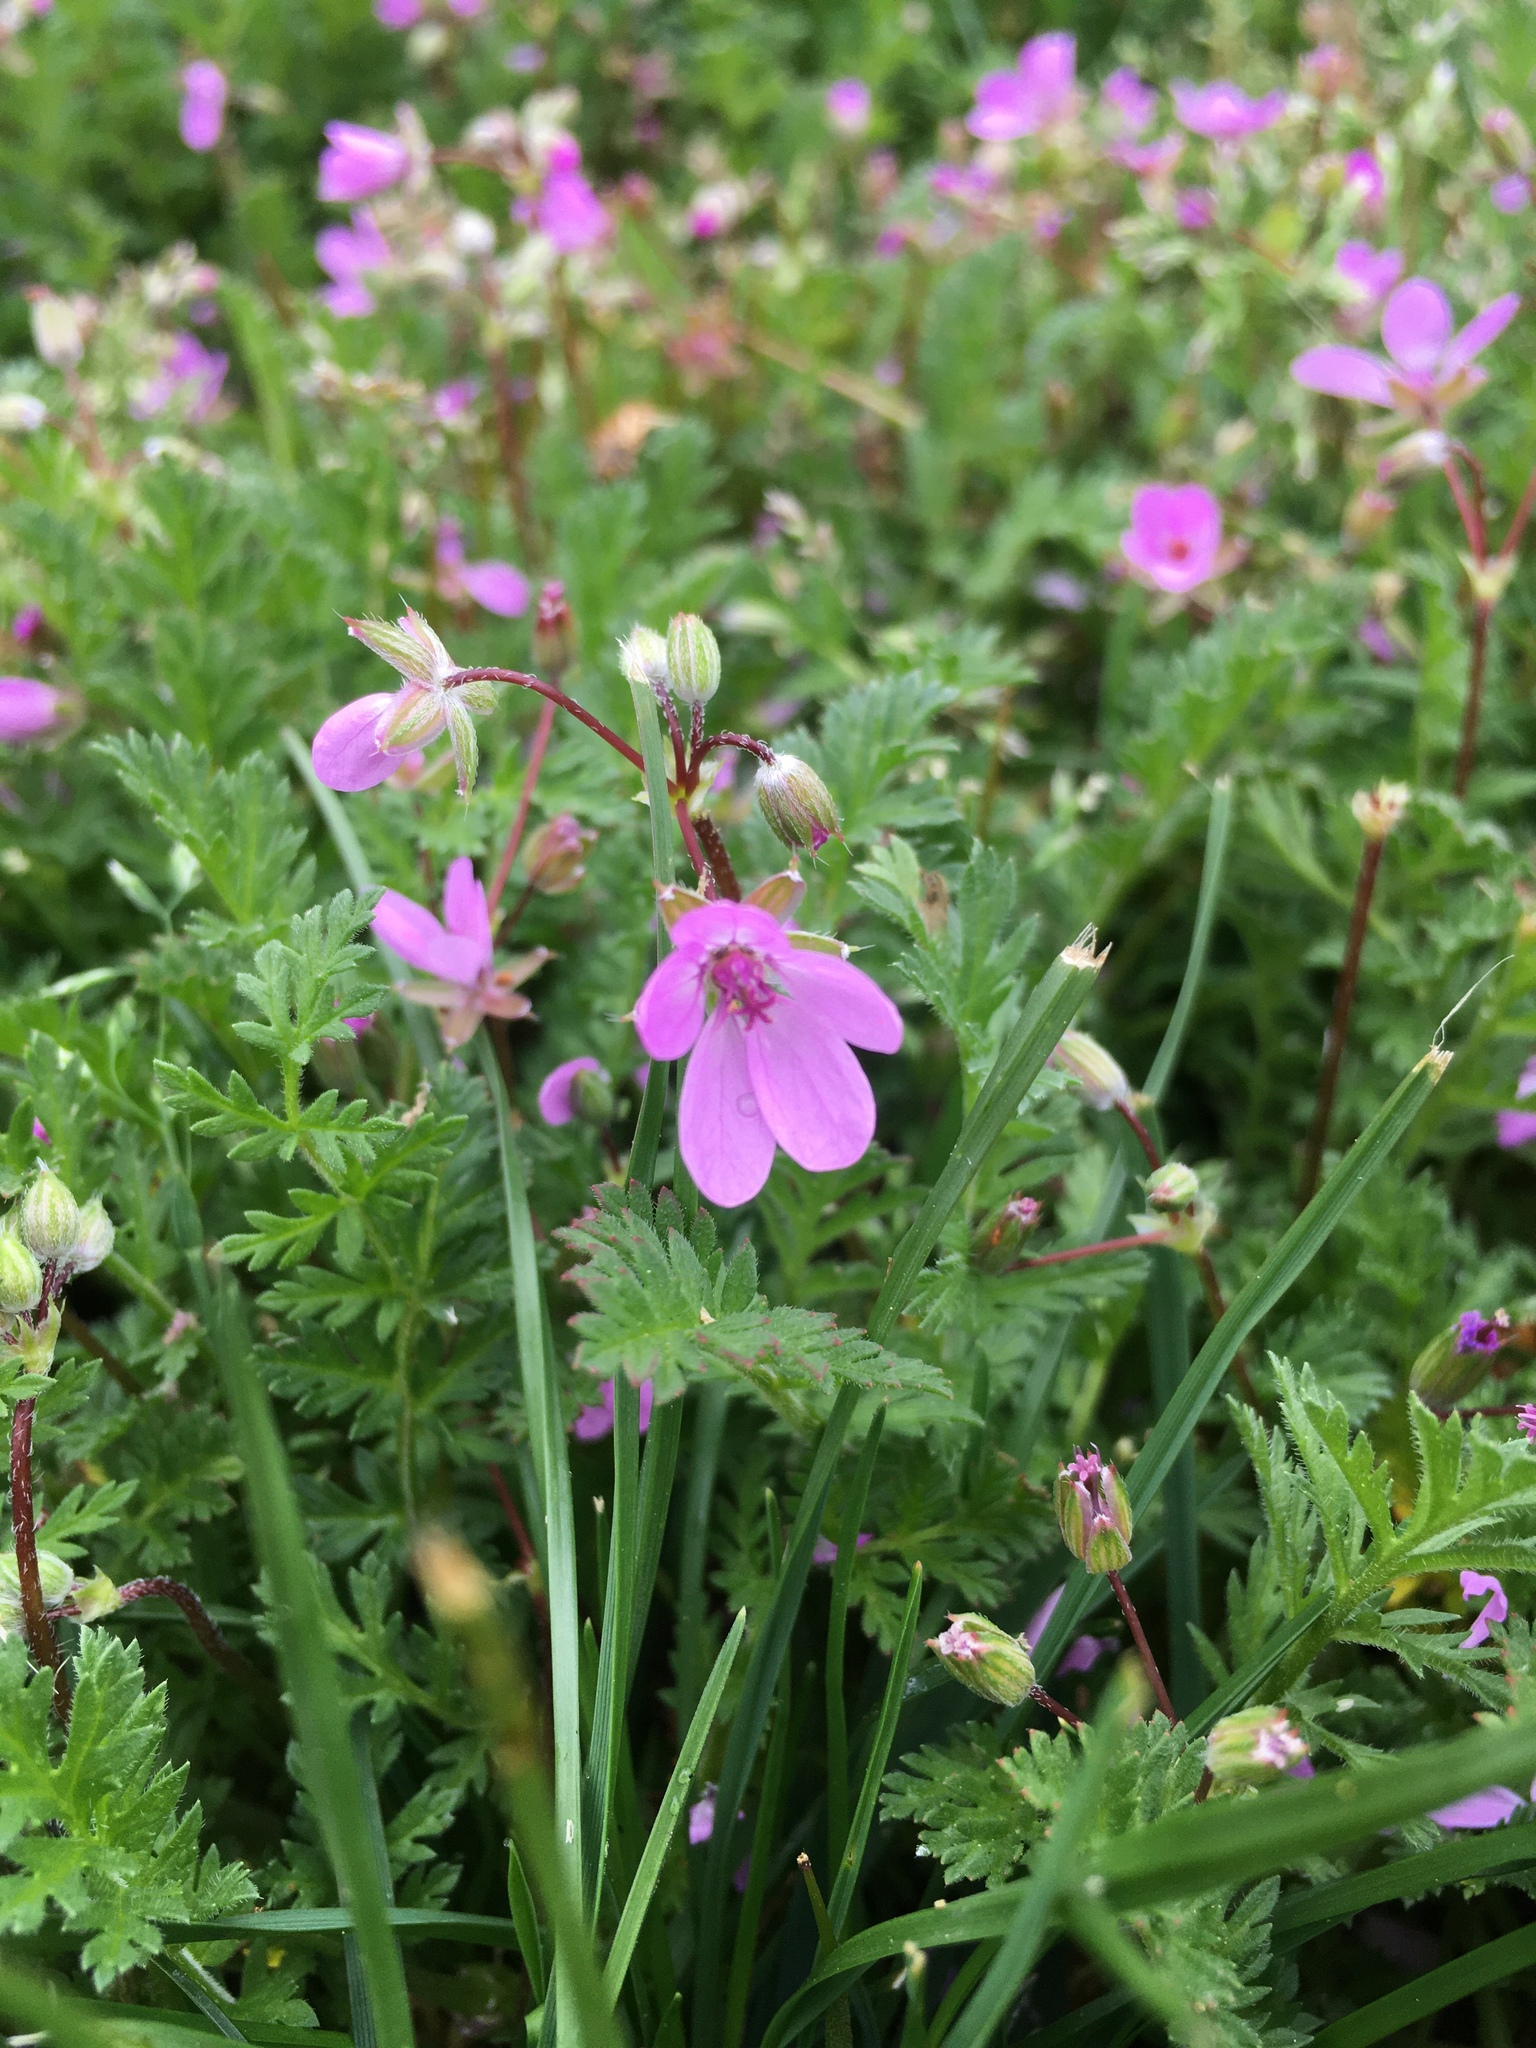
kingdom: Plantae
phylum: Tracheophyta
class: Magnoliopsida
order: Geraniales
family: Geraniaceae
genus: Erodium
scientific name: Erodium cicutarium
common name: Common stork's-bill
